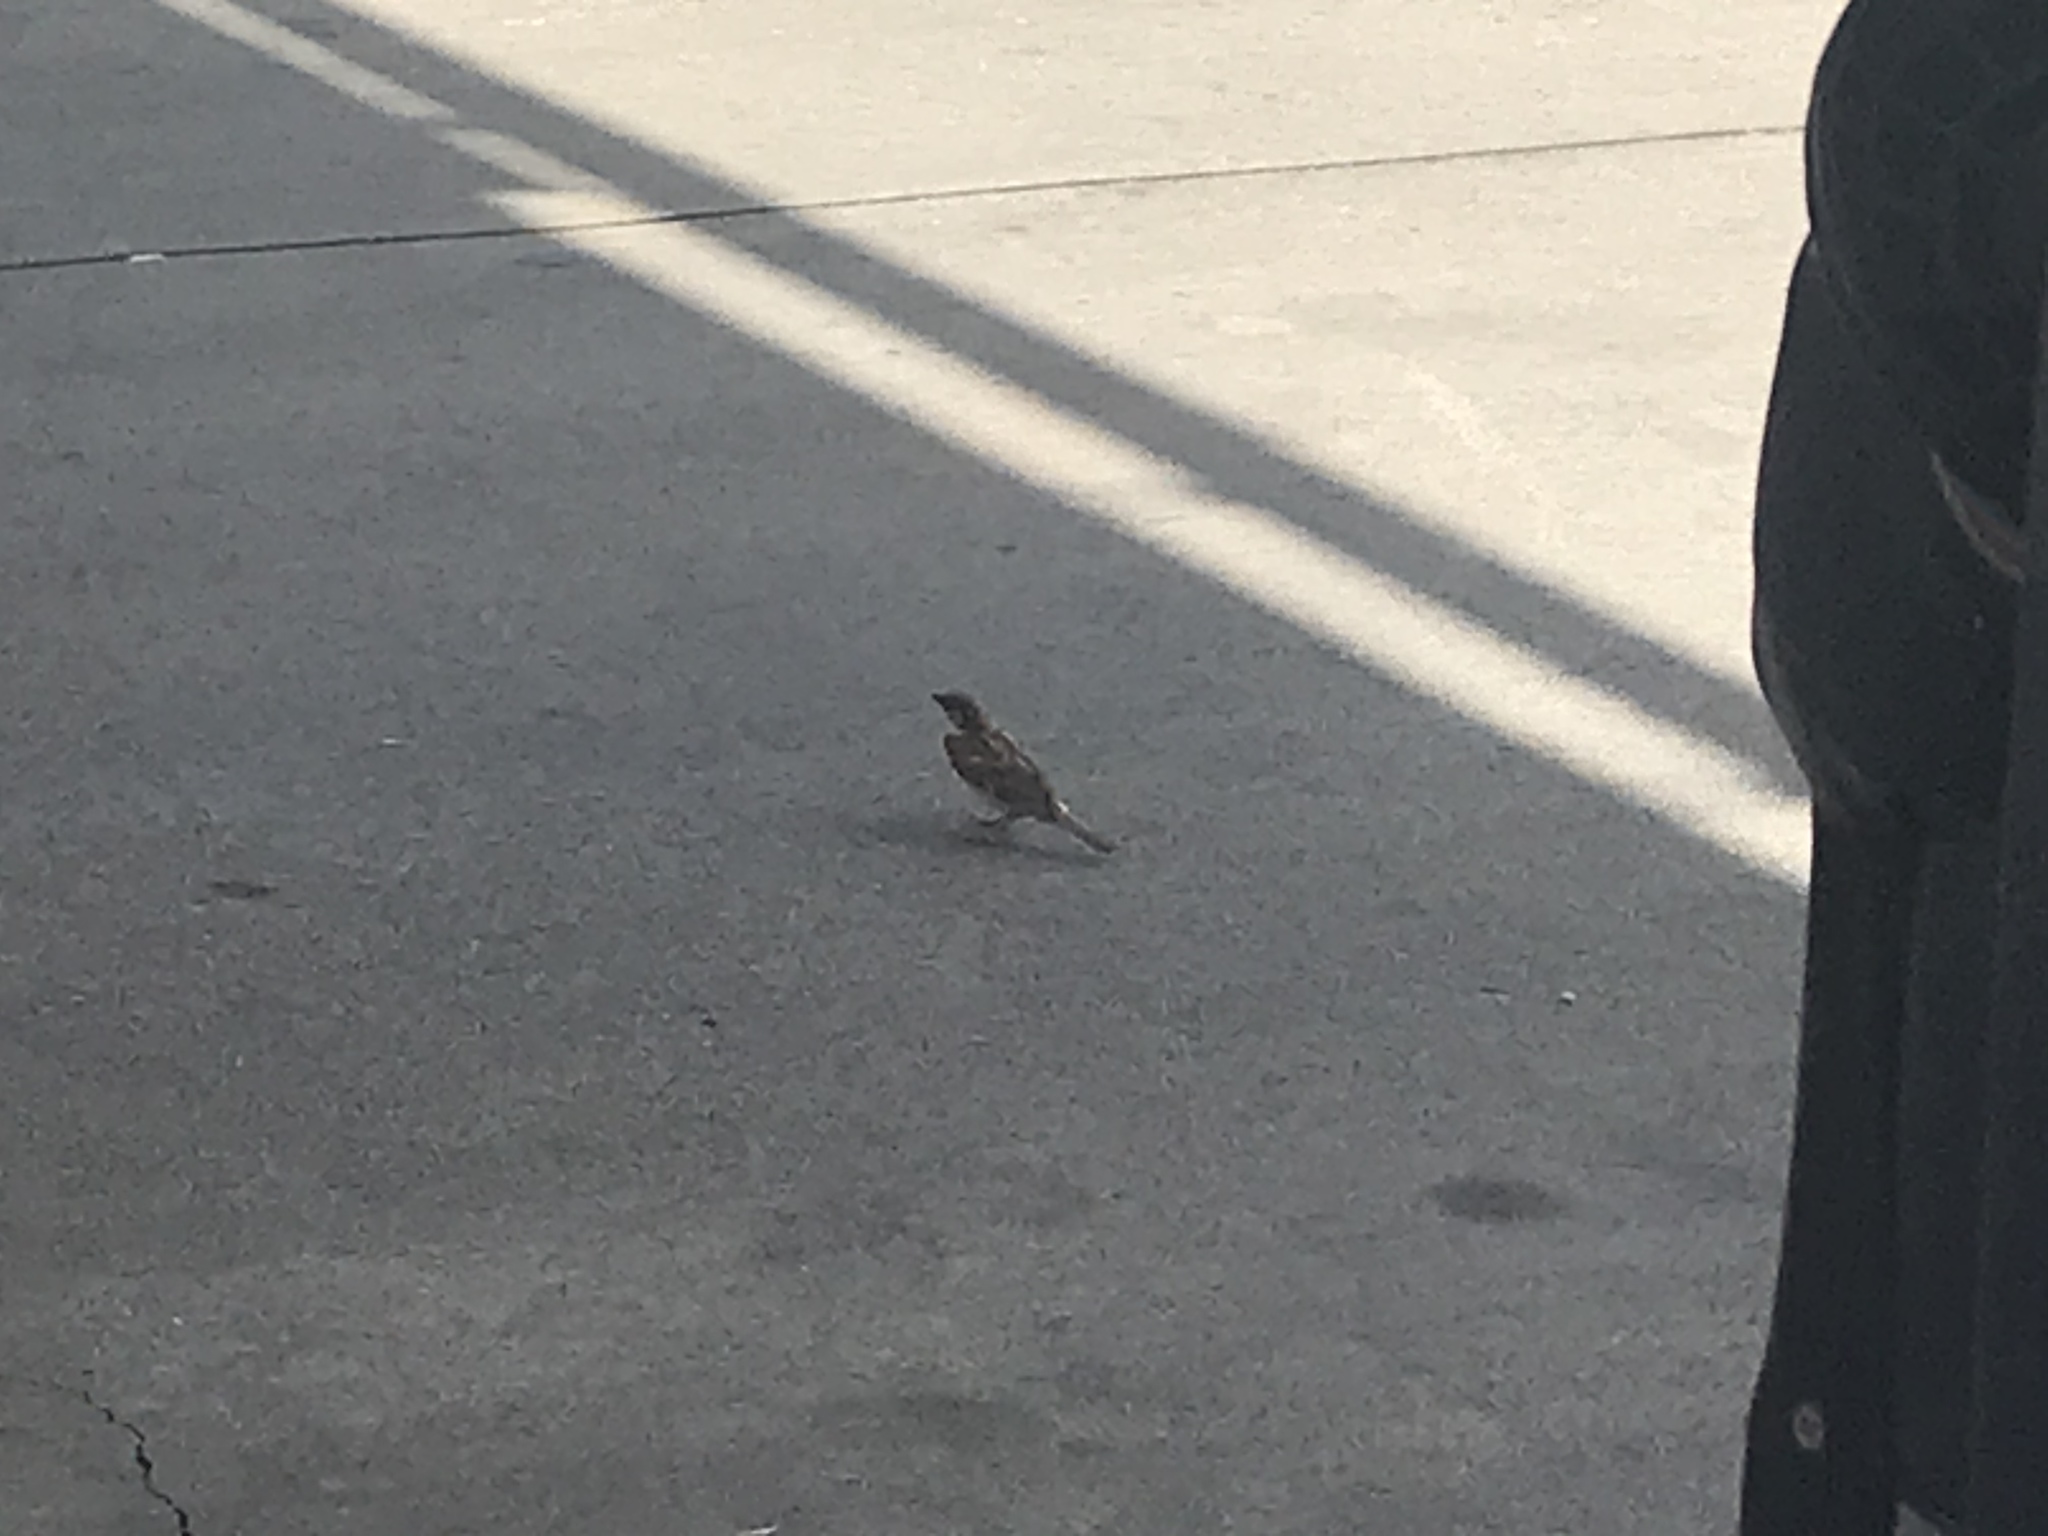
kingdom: Animalia
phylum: Chordata
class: Aves
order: Passeriformes
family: Passeridae
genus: Passer
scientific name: Passer domesticus
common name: House sparrow
